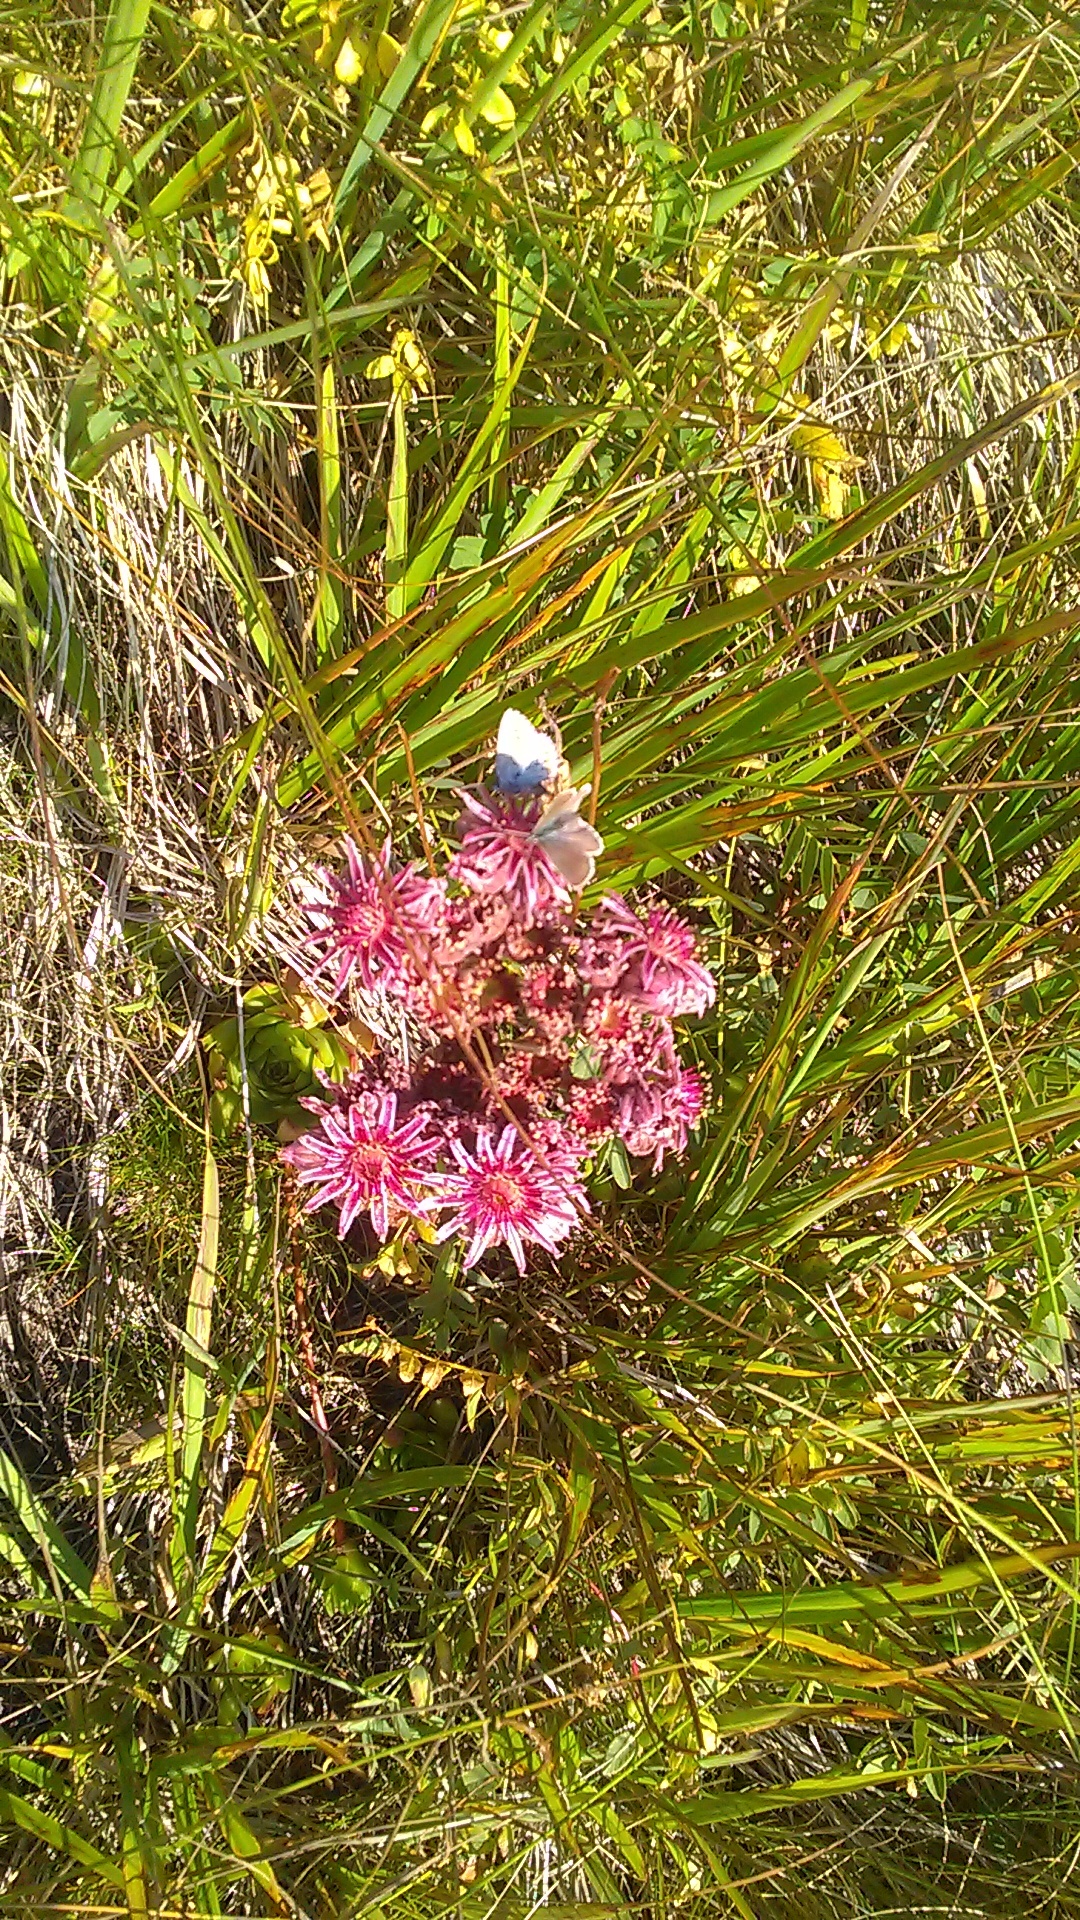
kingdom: Plantae
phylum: Tracheophyta
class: Magnoliopsida
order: Saxifragales
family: Crassulaceae
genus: Sempervivum
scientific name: Sempervivum caucasicum
